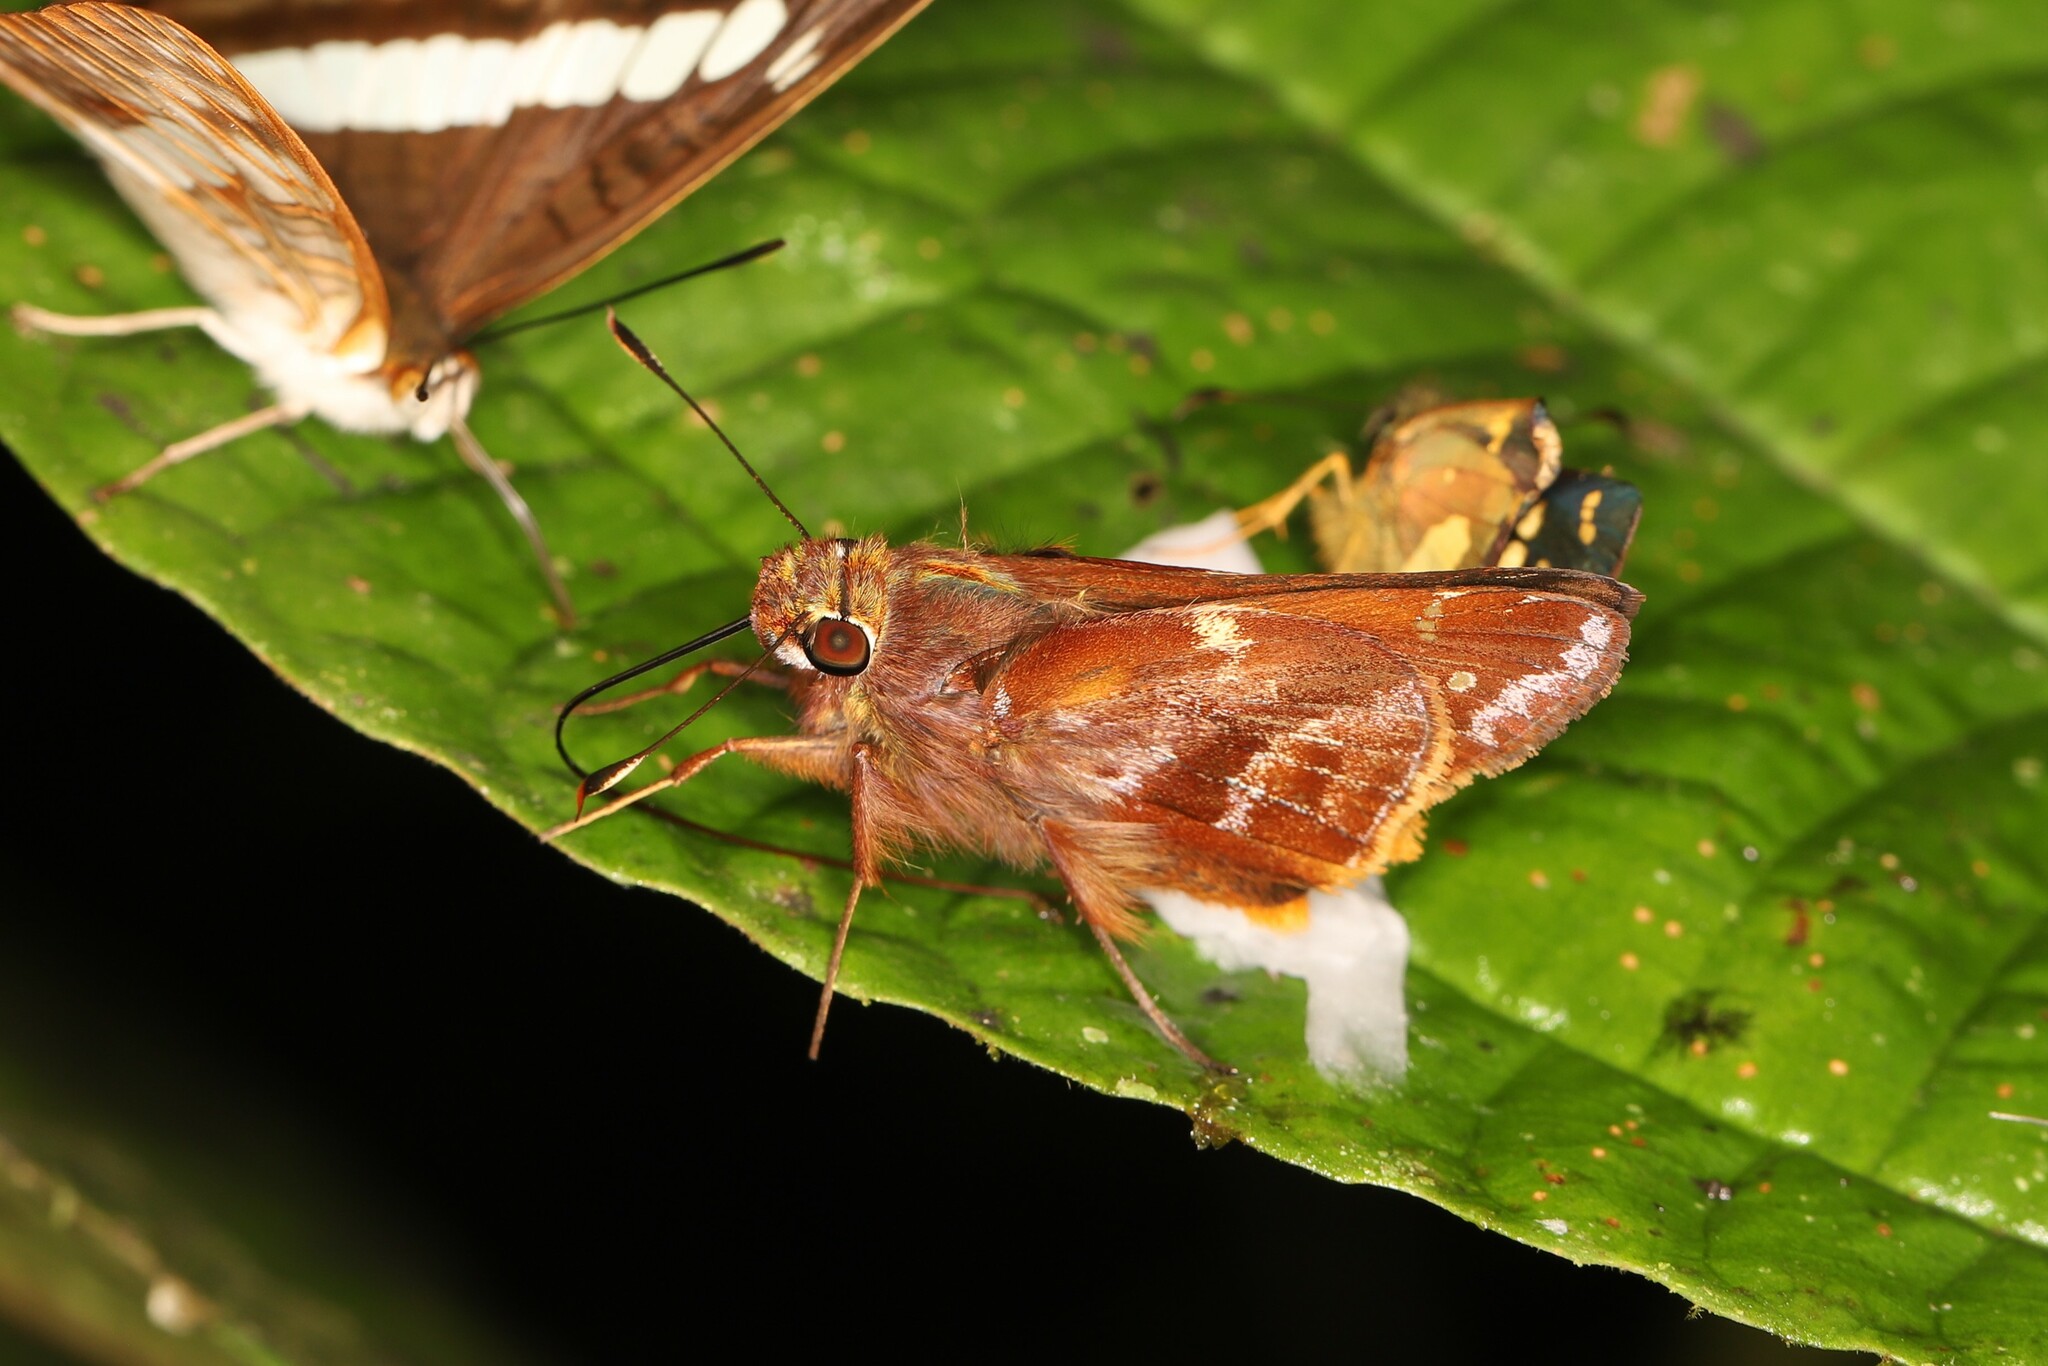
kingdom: Animalia
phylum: Arthropoda
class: Insecta
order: Lepidoptera
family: Hesperiidae
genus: Thespieus
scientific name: Thespieus tihoneta
